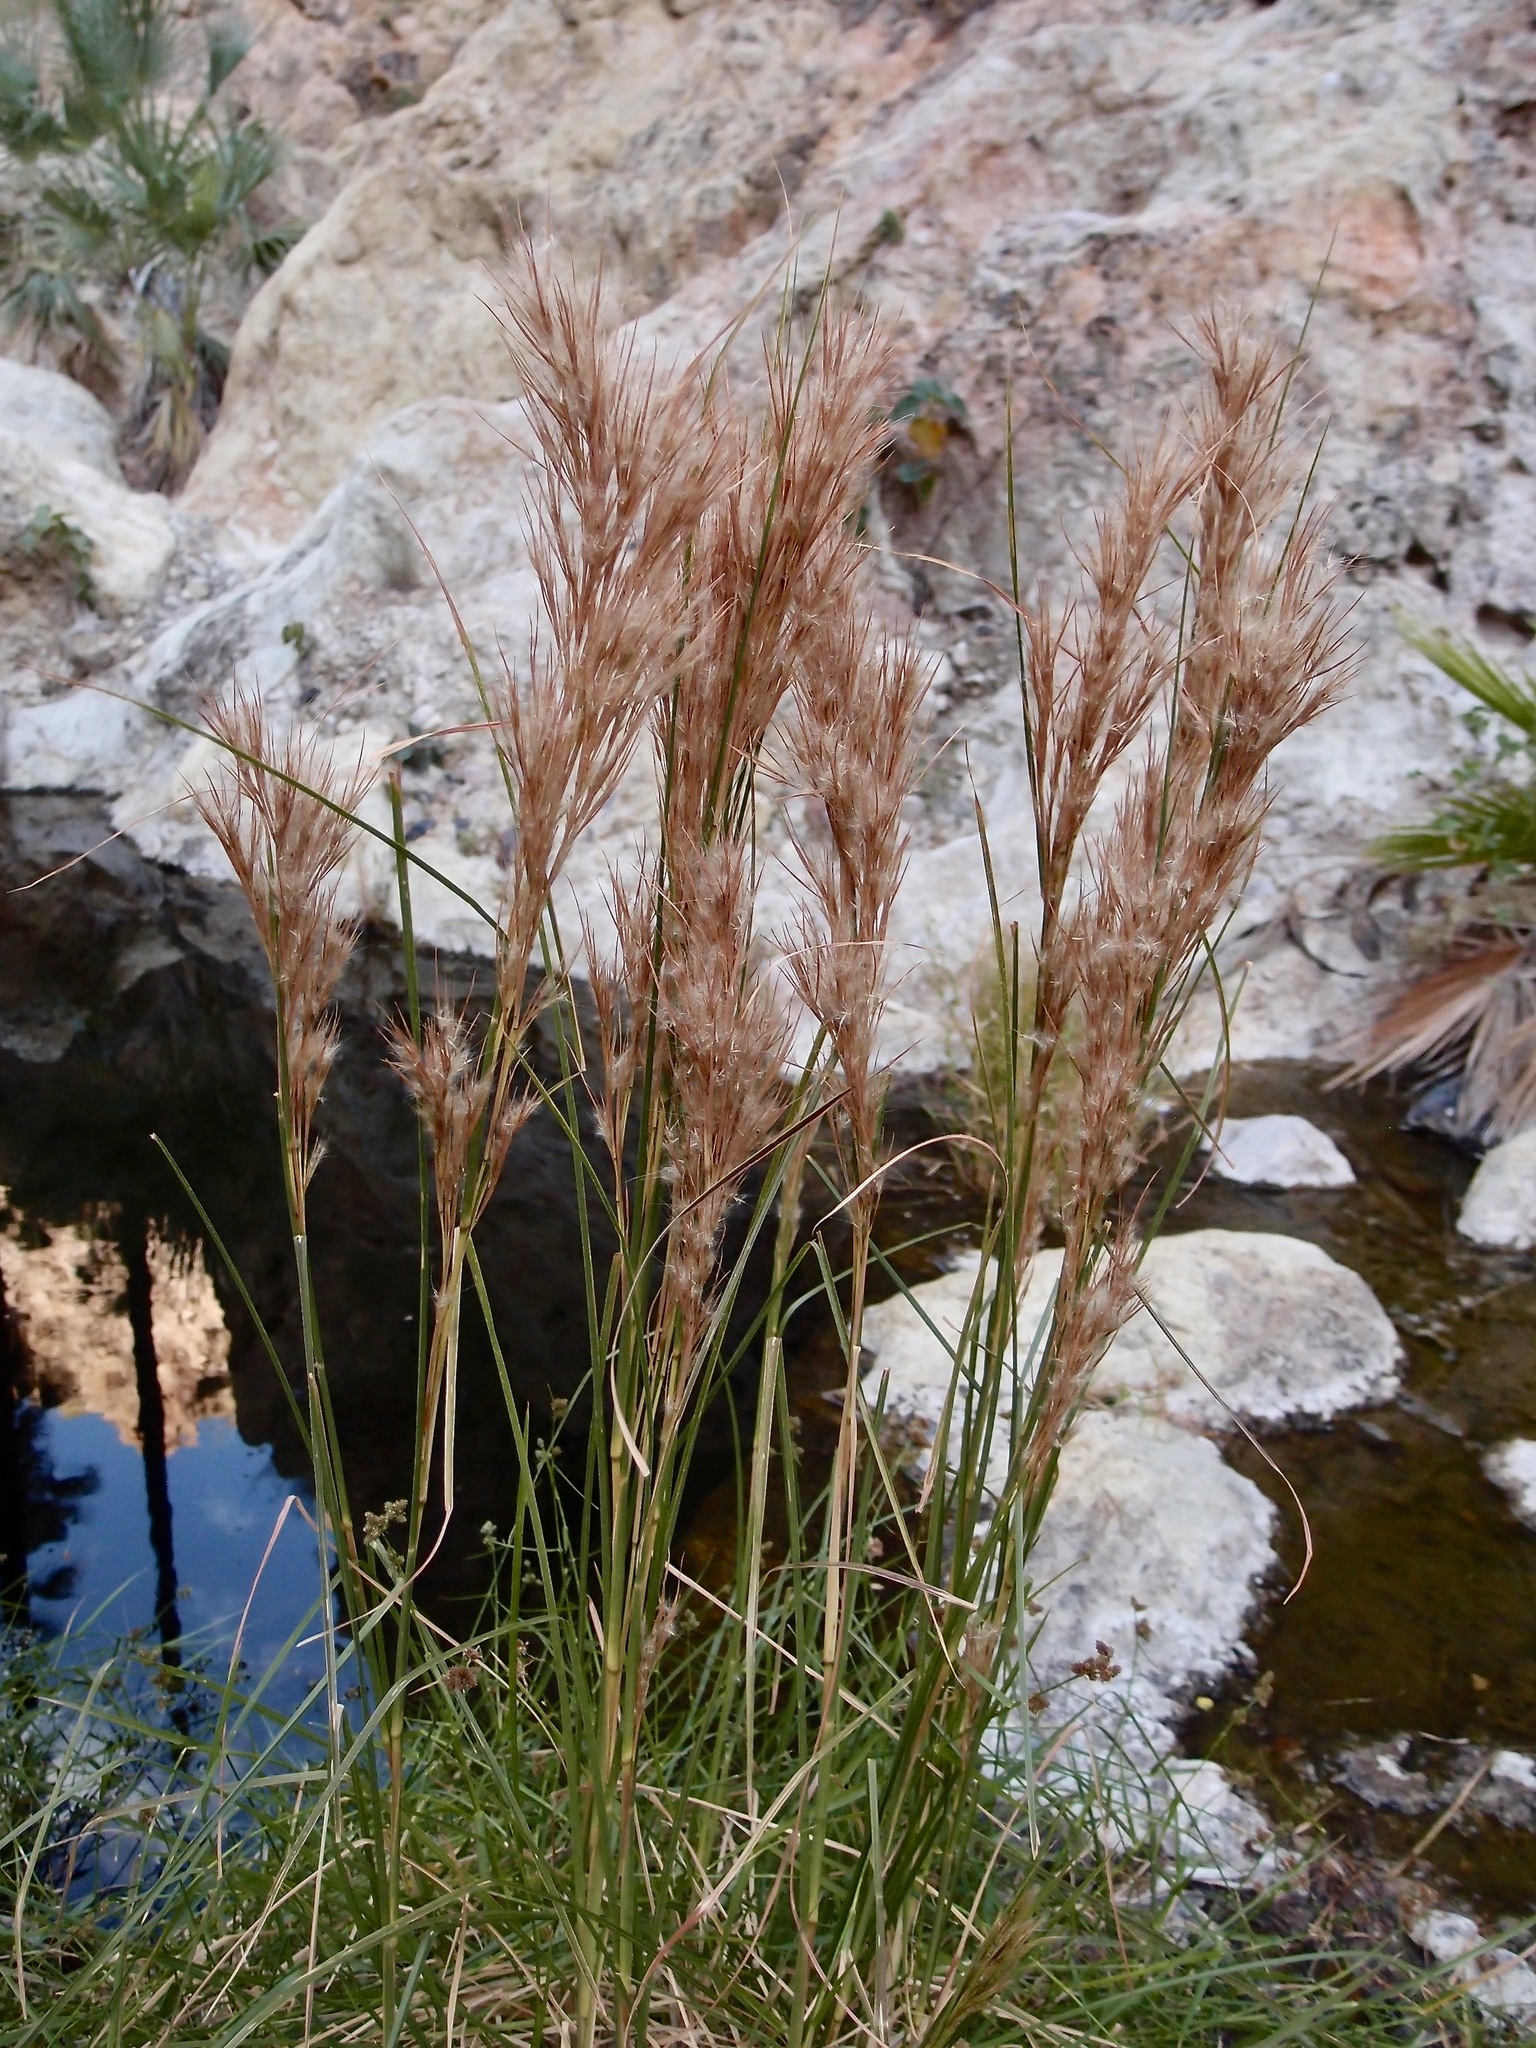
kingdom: Plantae
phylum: Tracheophyta
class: Liliopsida
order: Poales
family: Poaceae
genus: Andropogon
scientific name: Andropogon eremicus
